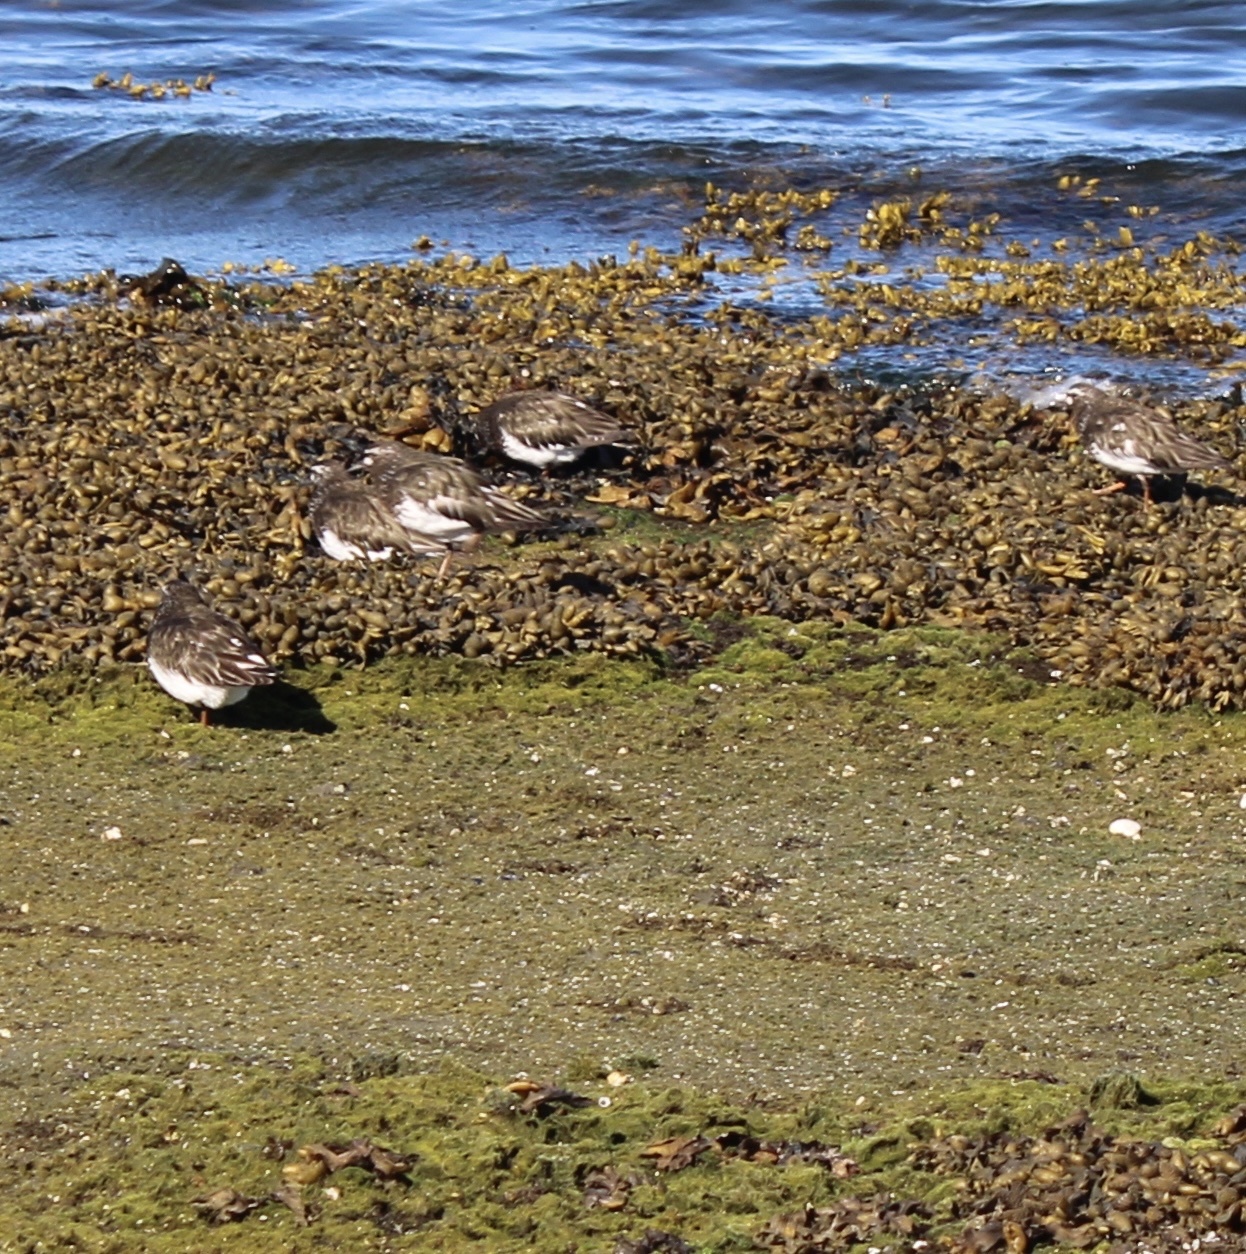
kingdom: Animalia
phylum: Chordata
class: Aves
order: Charadriiformes
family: Scolopacidae
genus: Arenaria
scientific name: Arenaria melanocephala
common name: Black turnstone
